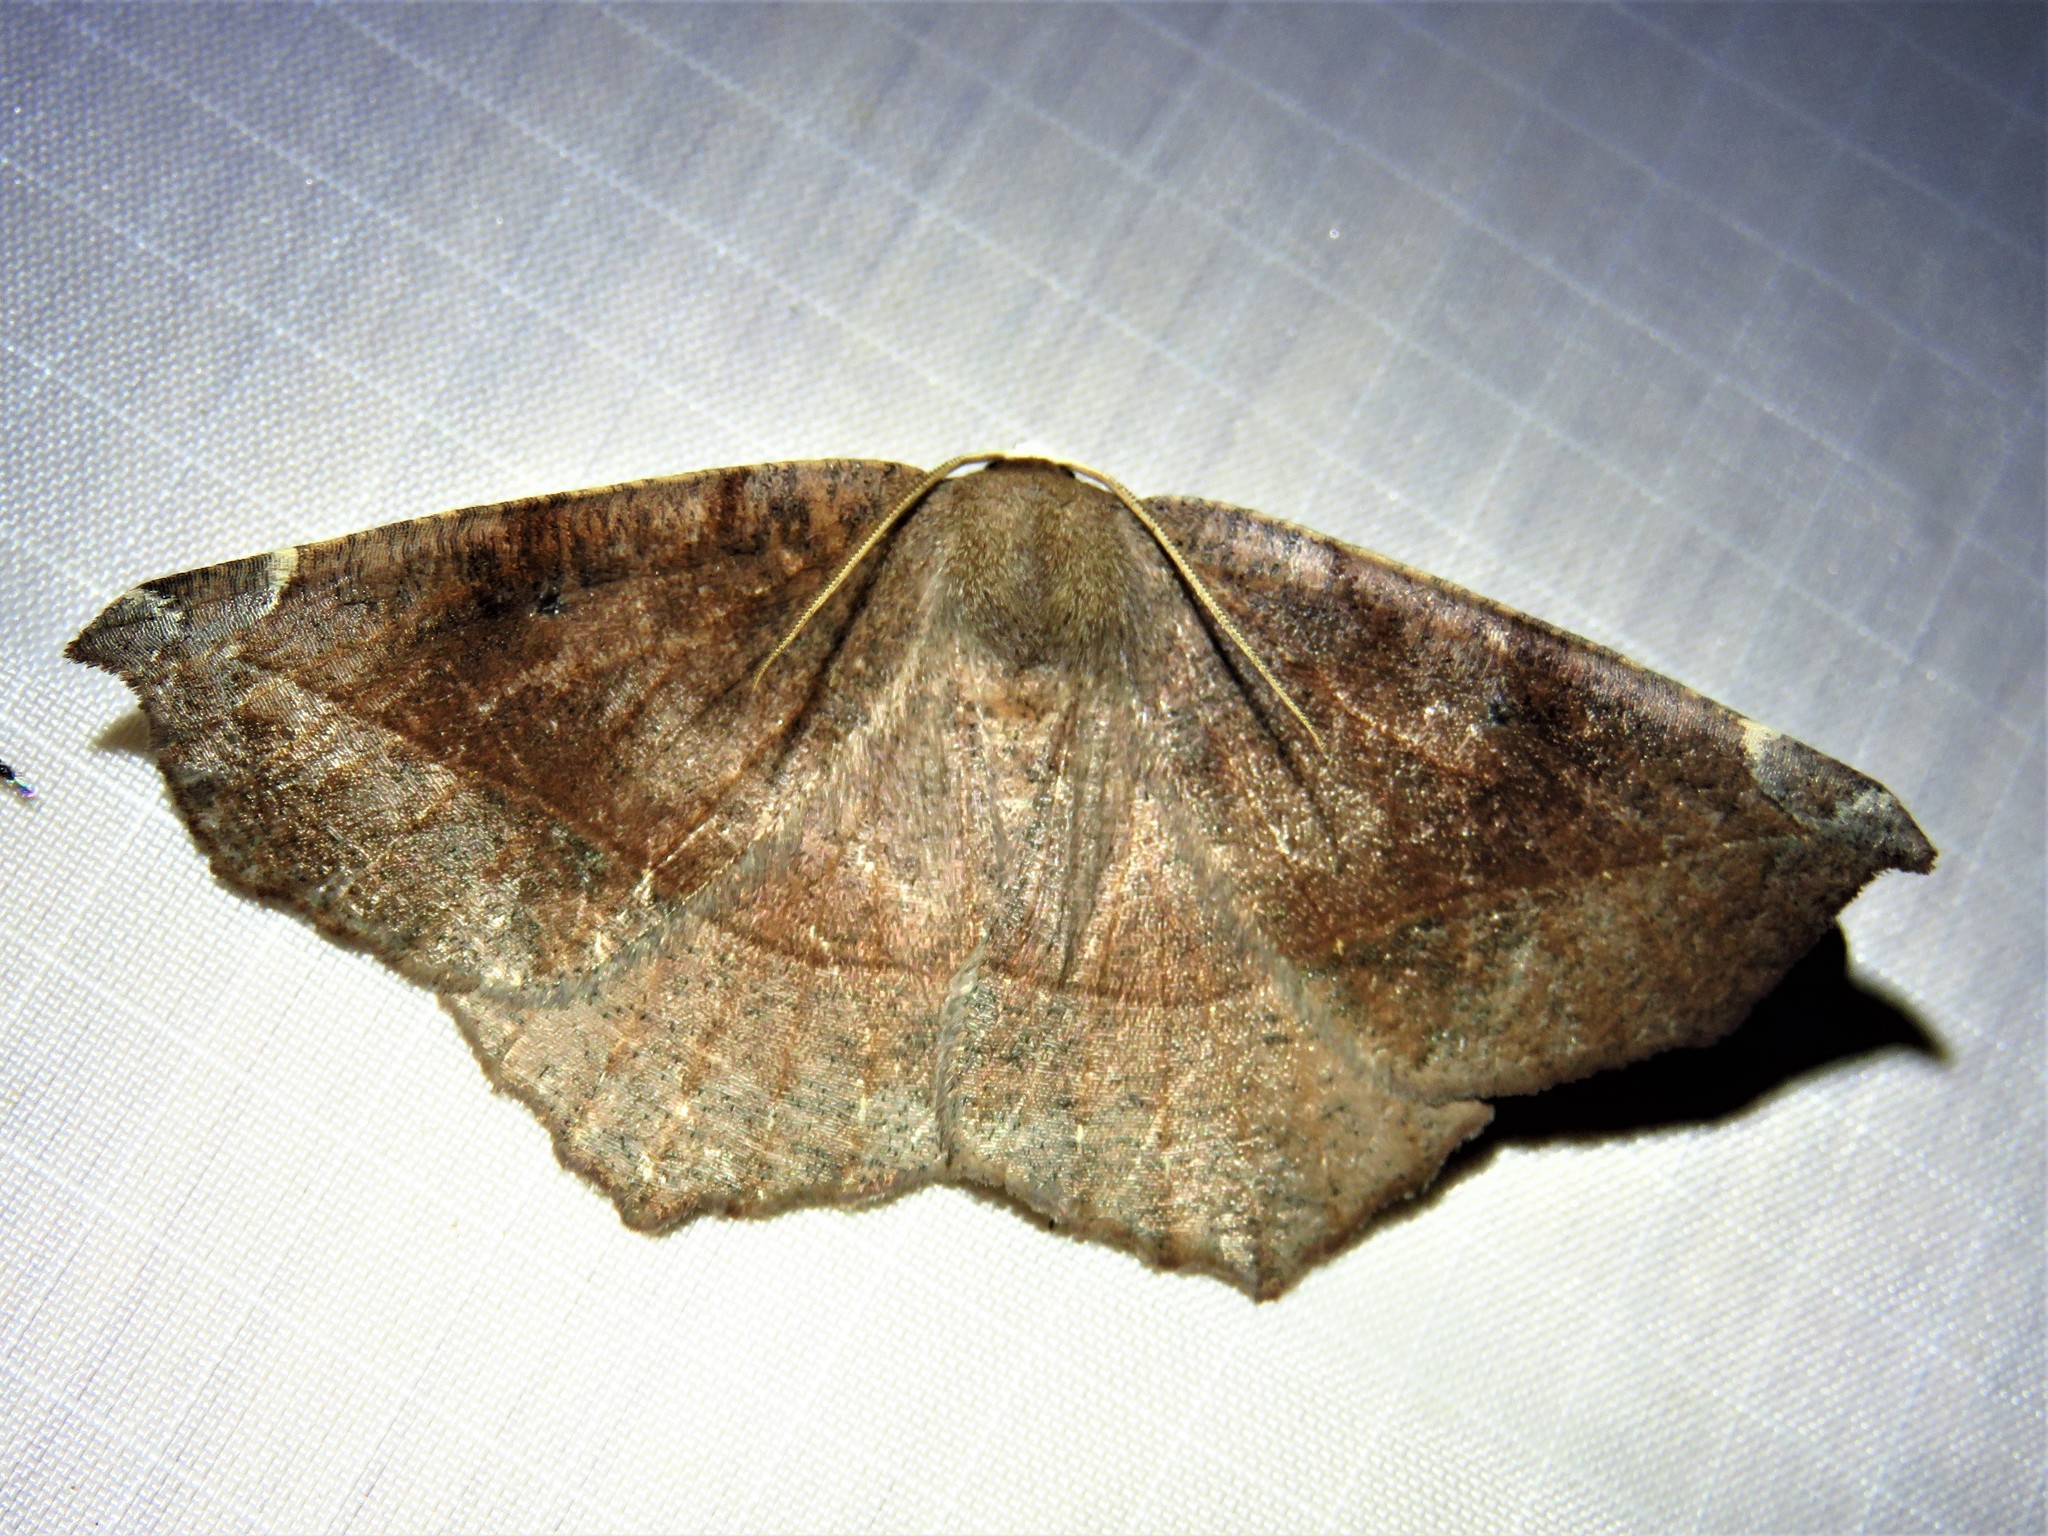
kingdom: Animalia
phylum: Arthropoda
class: Insecta
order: Lepidoptera
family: Geometridae
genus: Eutrapela
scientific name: Eutrapela clemataria
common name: Curved-toothed geometer
